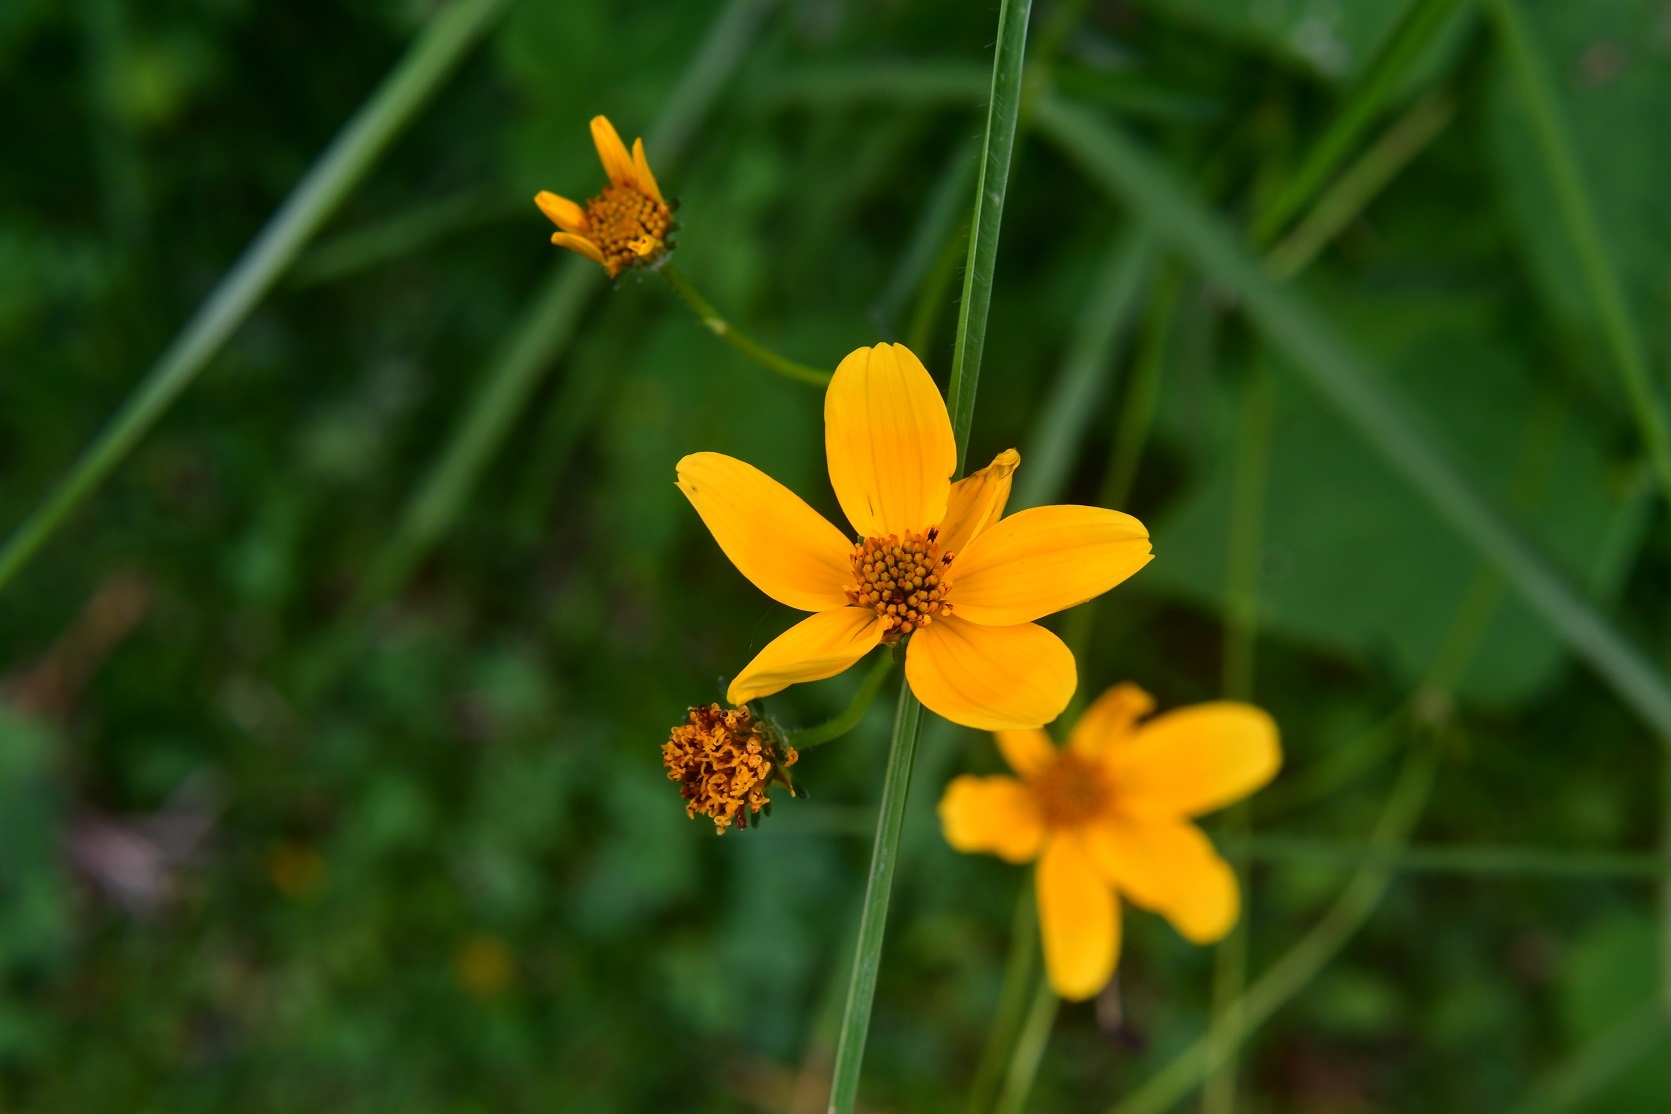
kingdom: Plantae
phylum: Tracheophyta
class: Magnoliopsida
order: Asterales
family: Asteraceae
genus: Bidens
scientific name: Bidens aurea
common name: Arizona beggar-ticks
